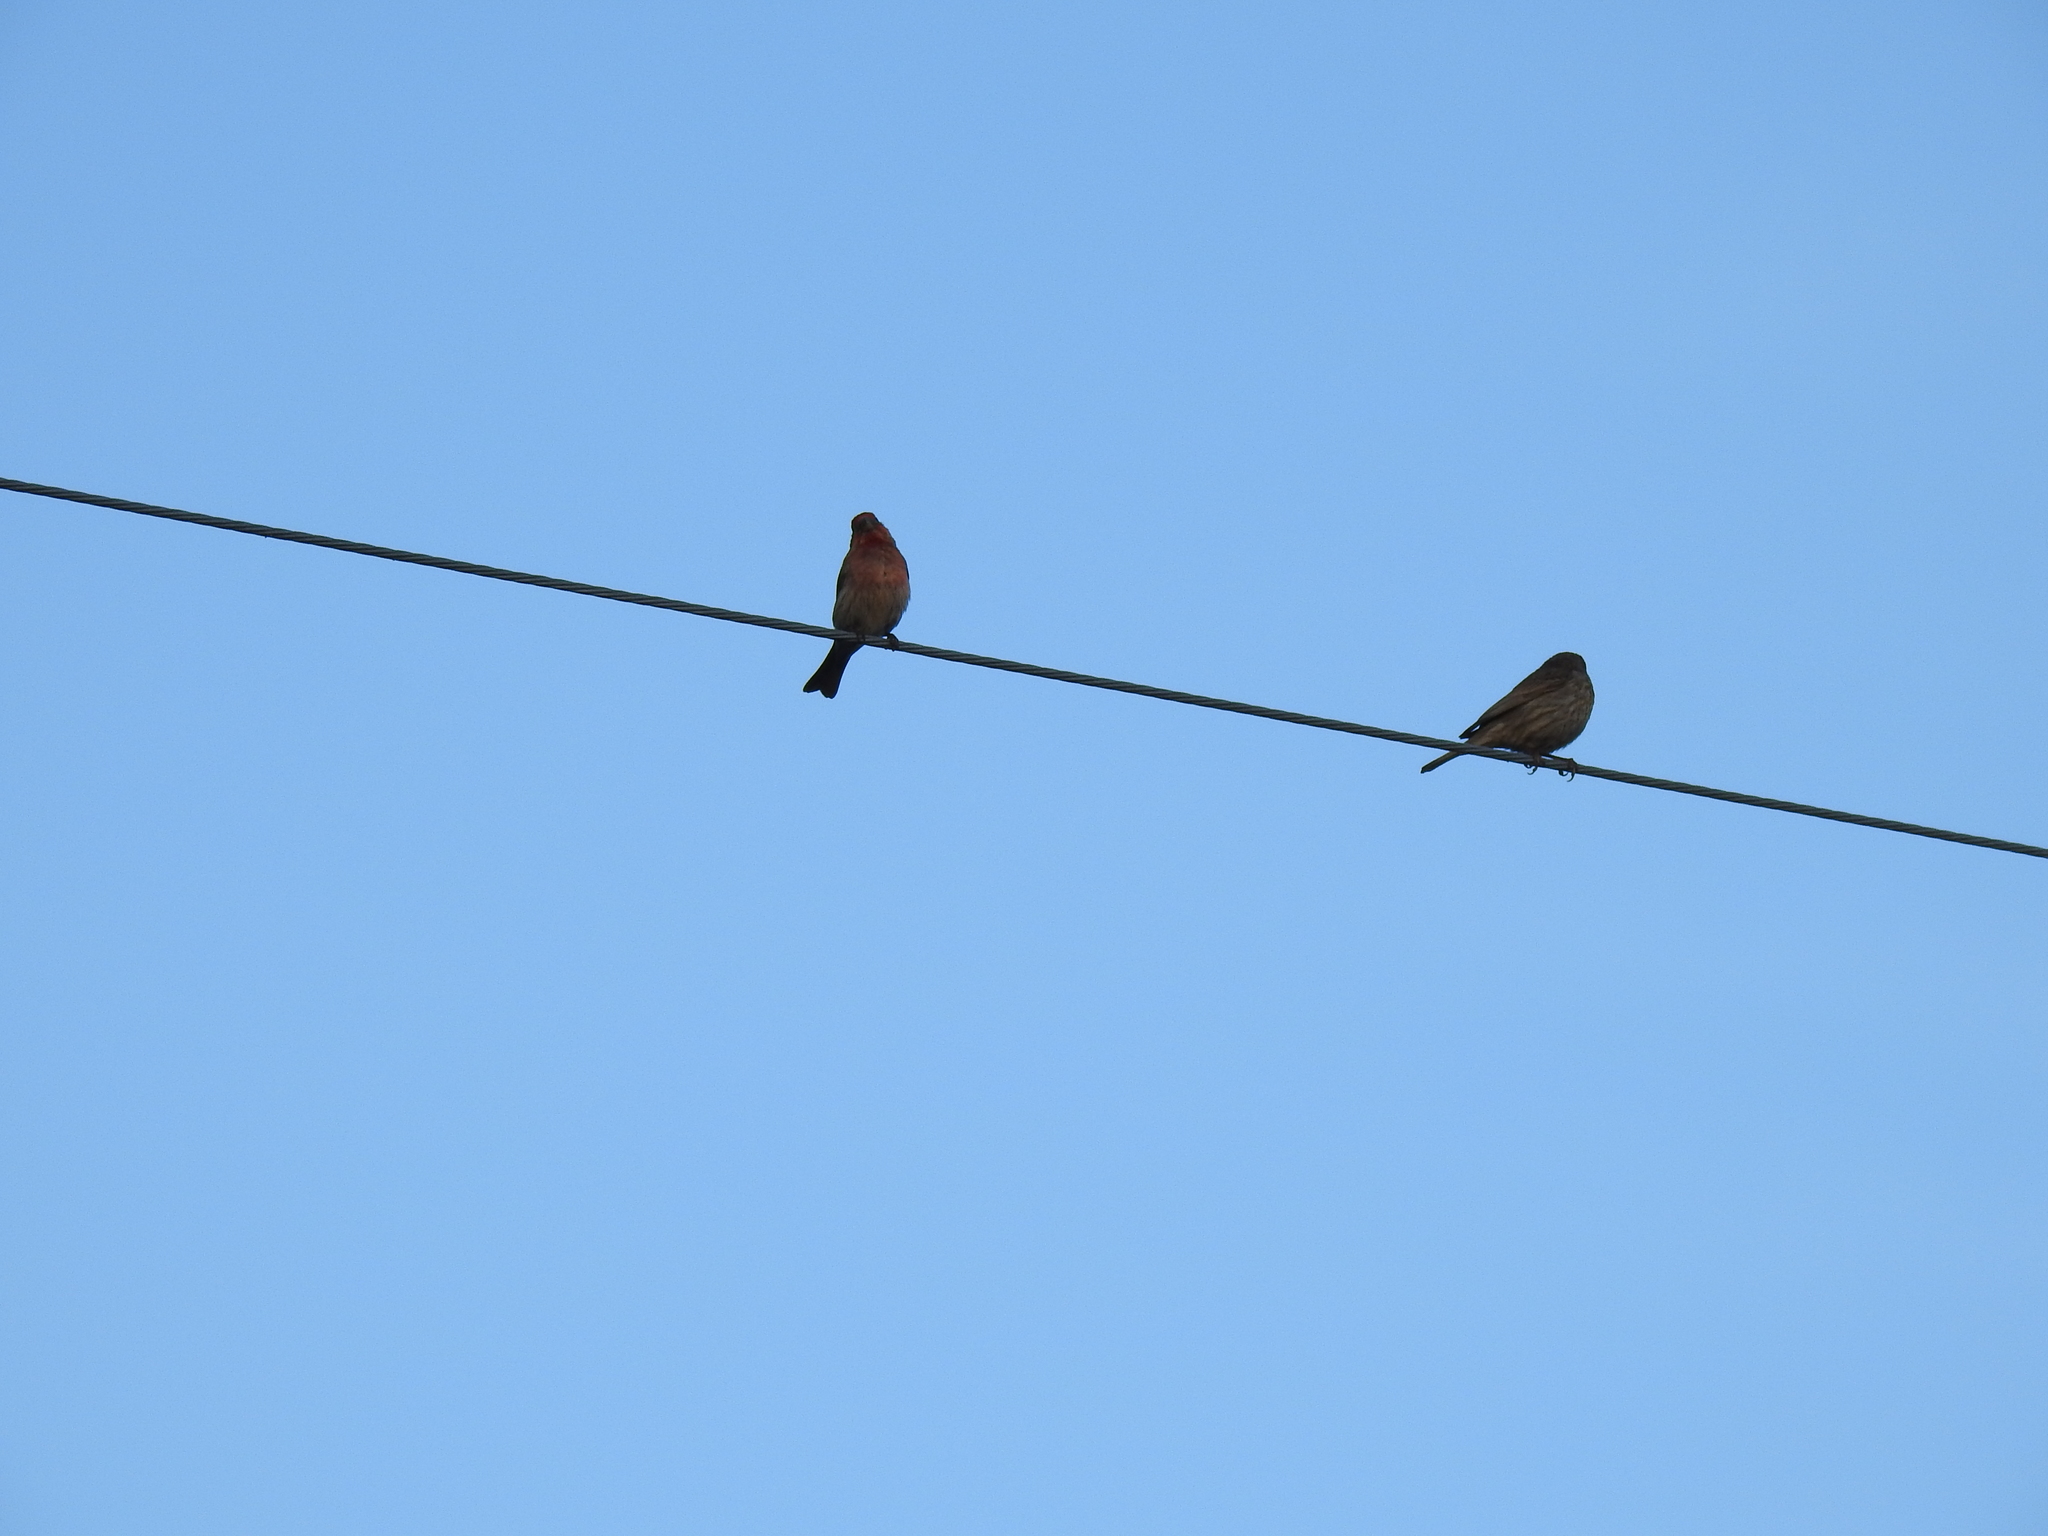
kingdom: Animalia
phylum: Chordata
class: Aves
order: Passeriformes
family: Fringillidae
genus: Haemorhous
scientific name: Haemorhous mexicanus
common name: House finch
